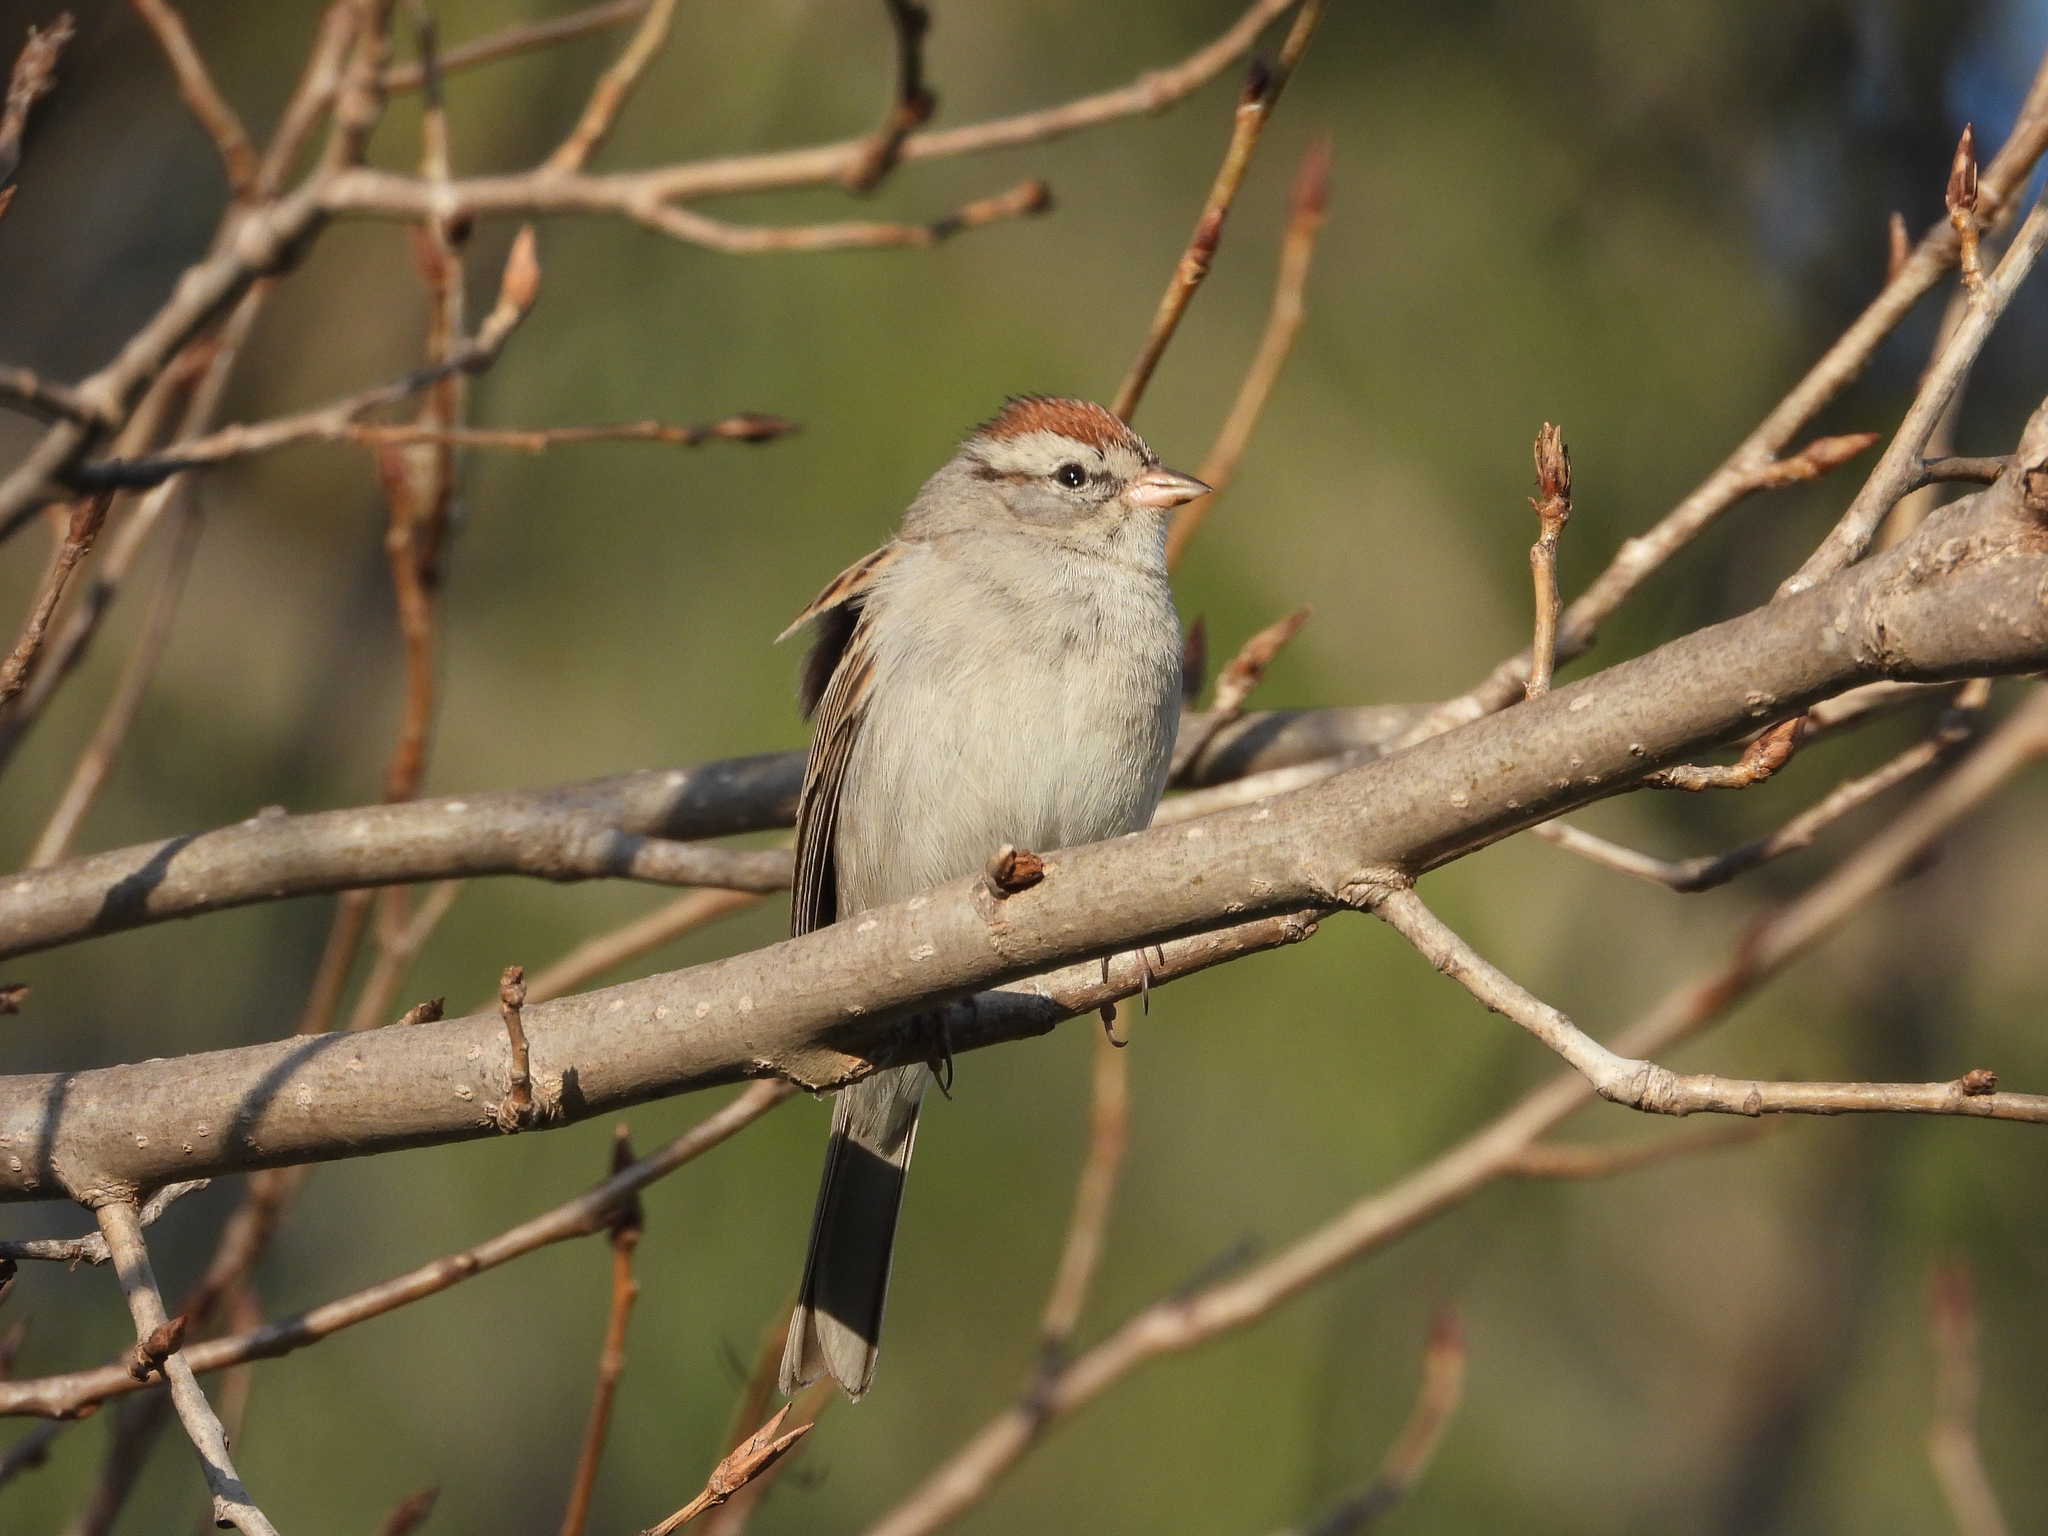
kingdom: Animalia
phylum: Chordata
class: Aves
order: Passeriformes
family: Passerellidae
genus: Spizella
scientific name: Spizella passerina
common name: Chipping sparrow
